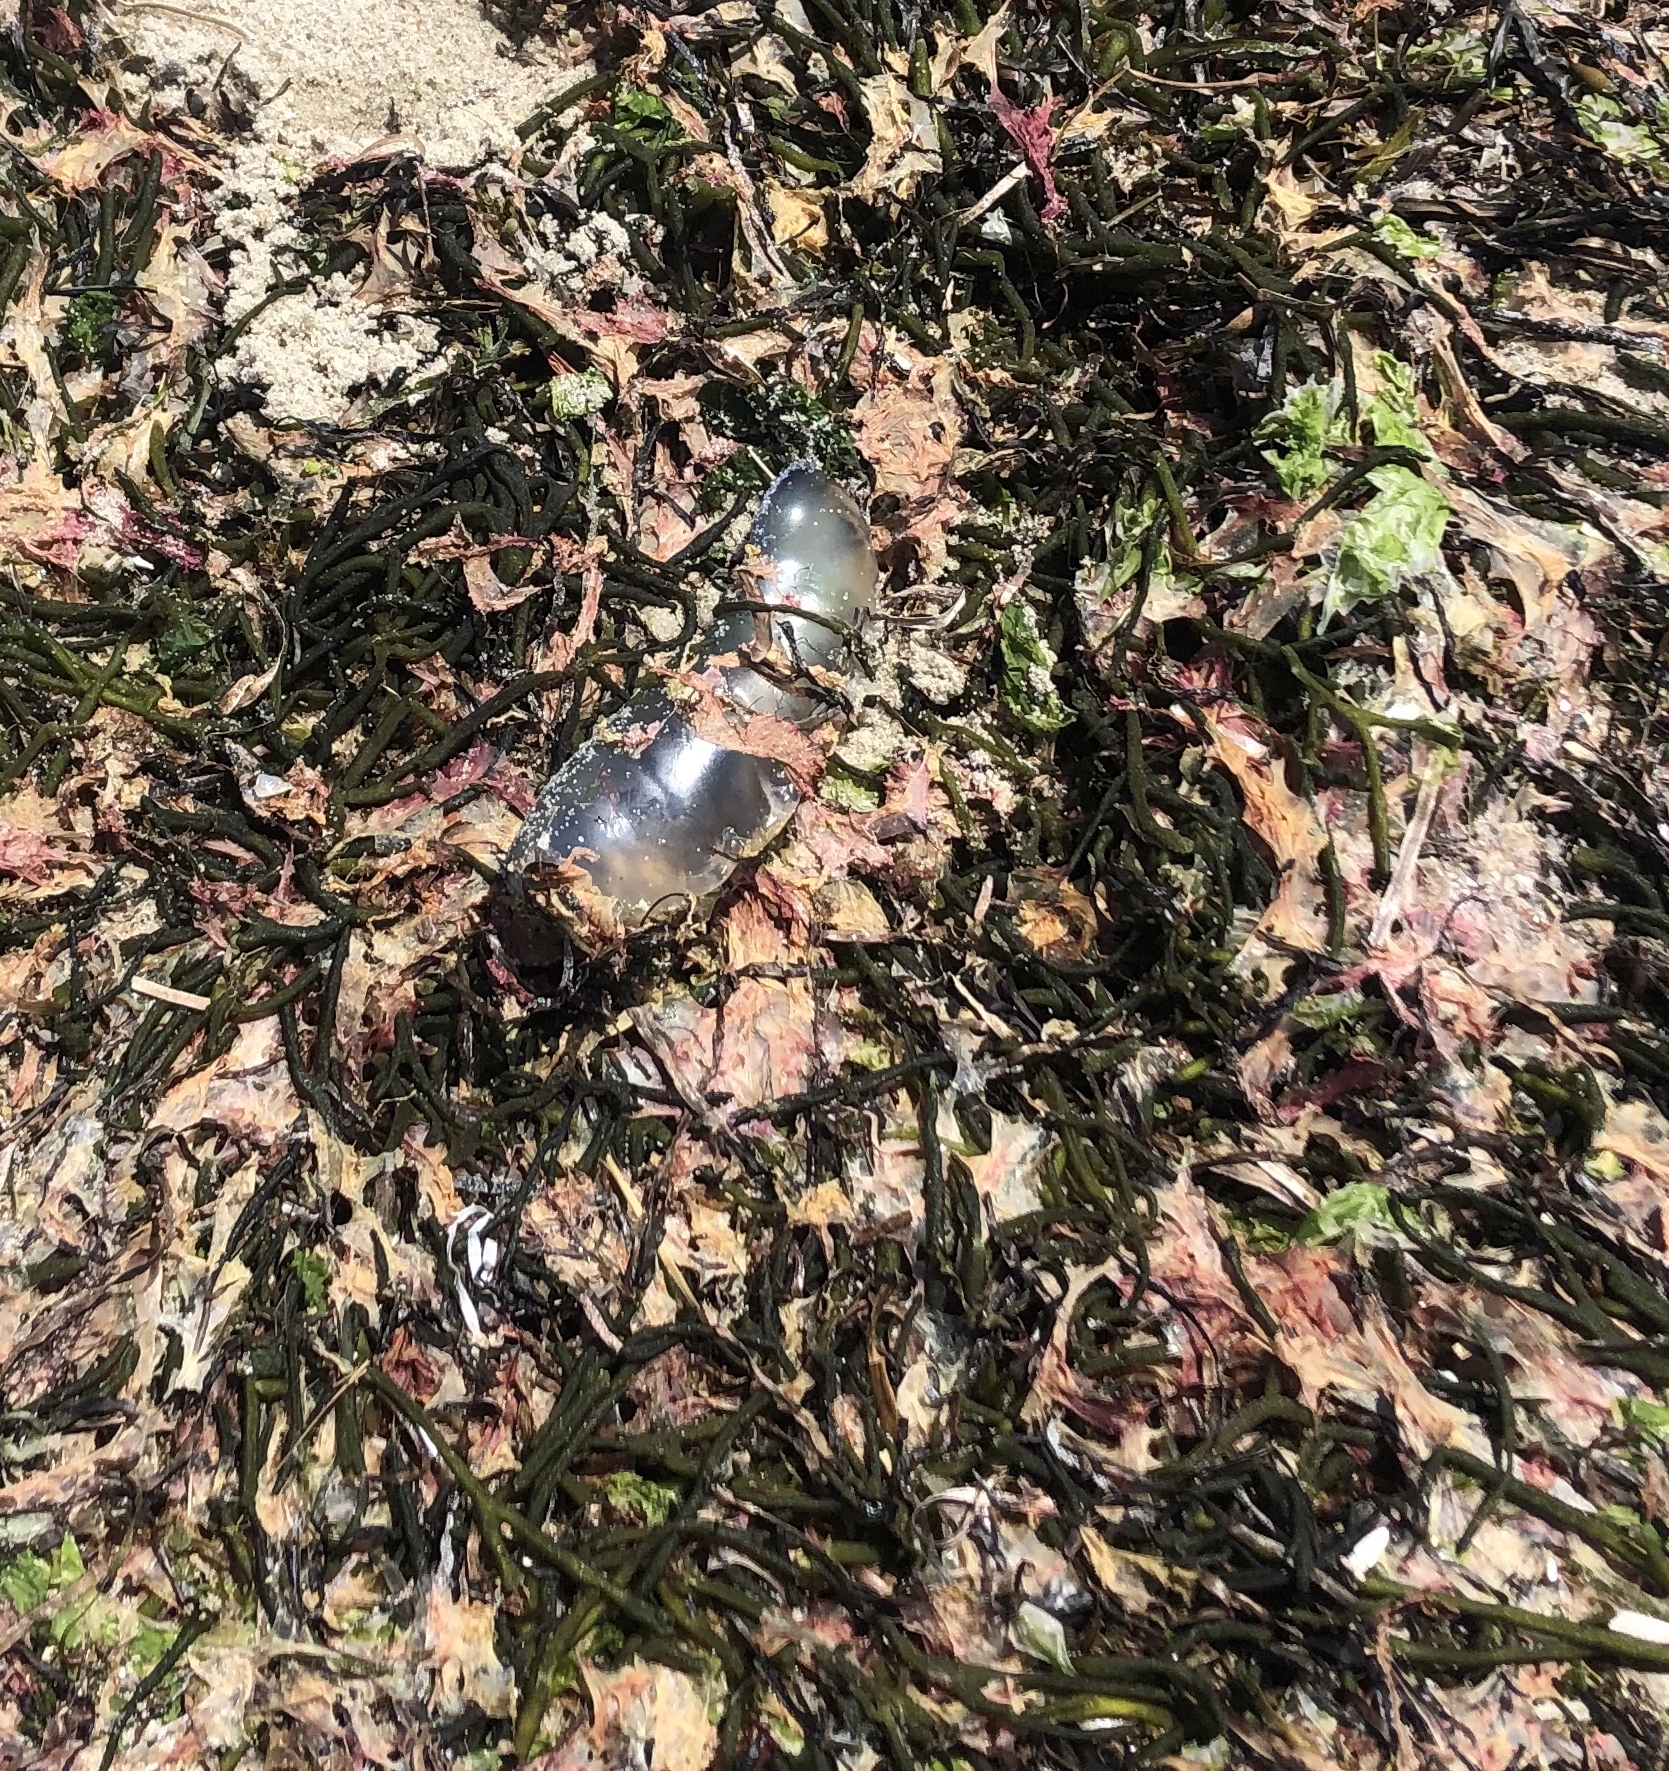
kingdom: Animalia
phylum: Cnidaria
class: Hydrozoa
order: Siphonophorae
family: Physaliidae
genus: Physalia
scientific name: Physalia physalis
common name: Portuguese man-of-war
